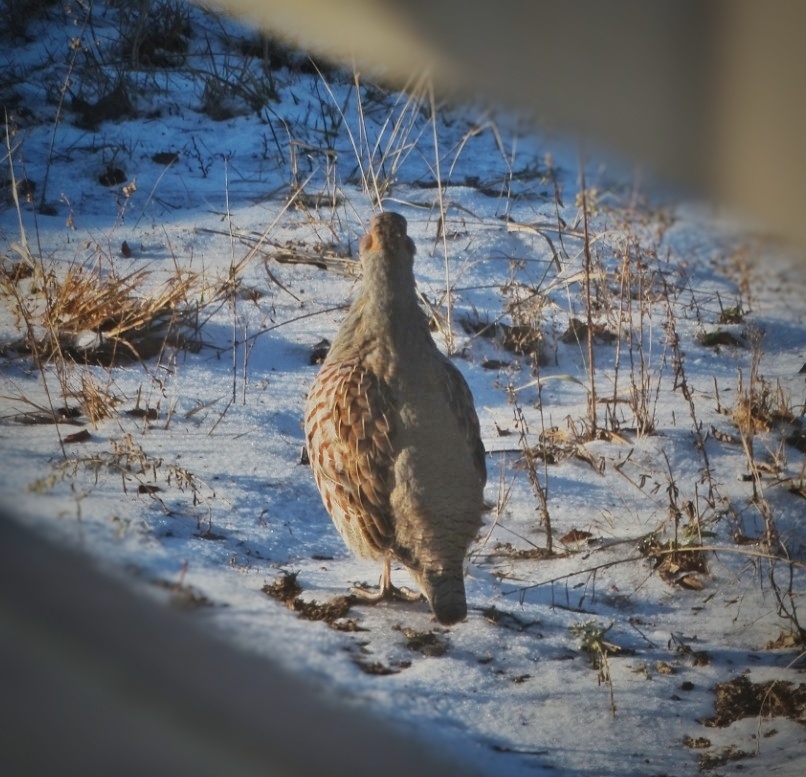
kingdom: Animalia
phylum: Chordata
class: Aves
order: Galliformes
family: Phasianidae
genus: Perdix
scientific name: Perdix perdix
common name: Grey partridge
